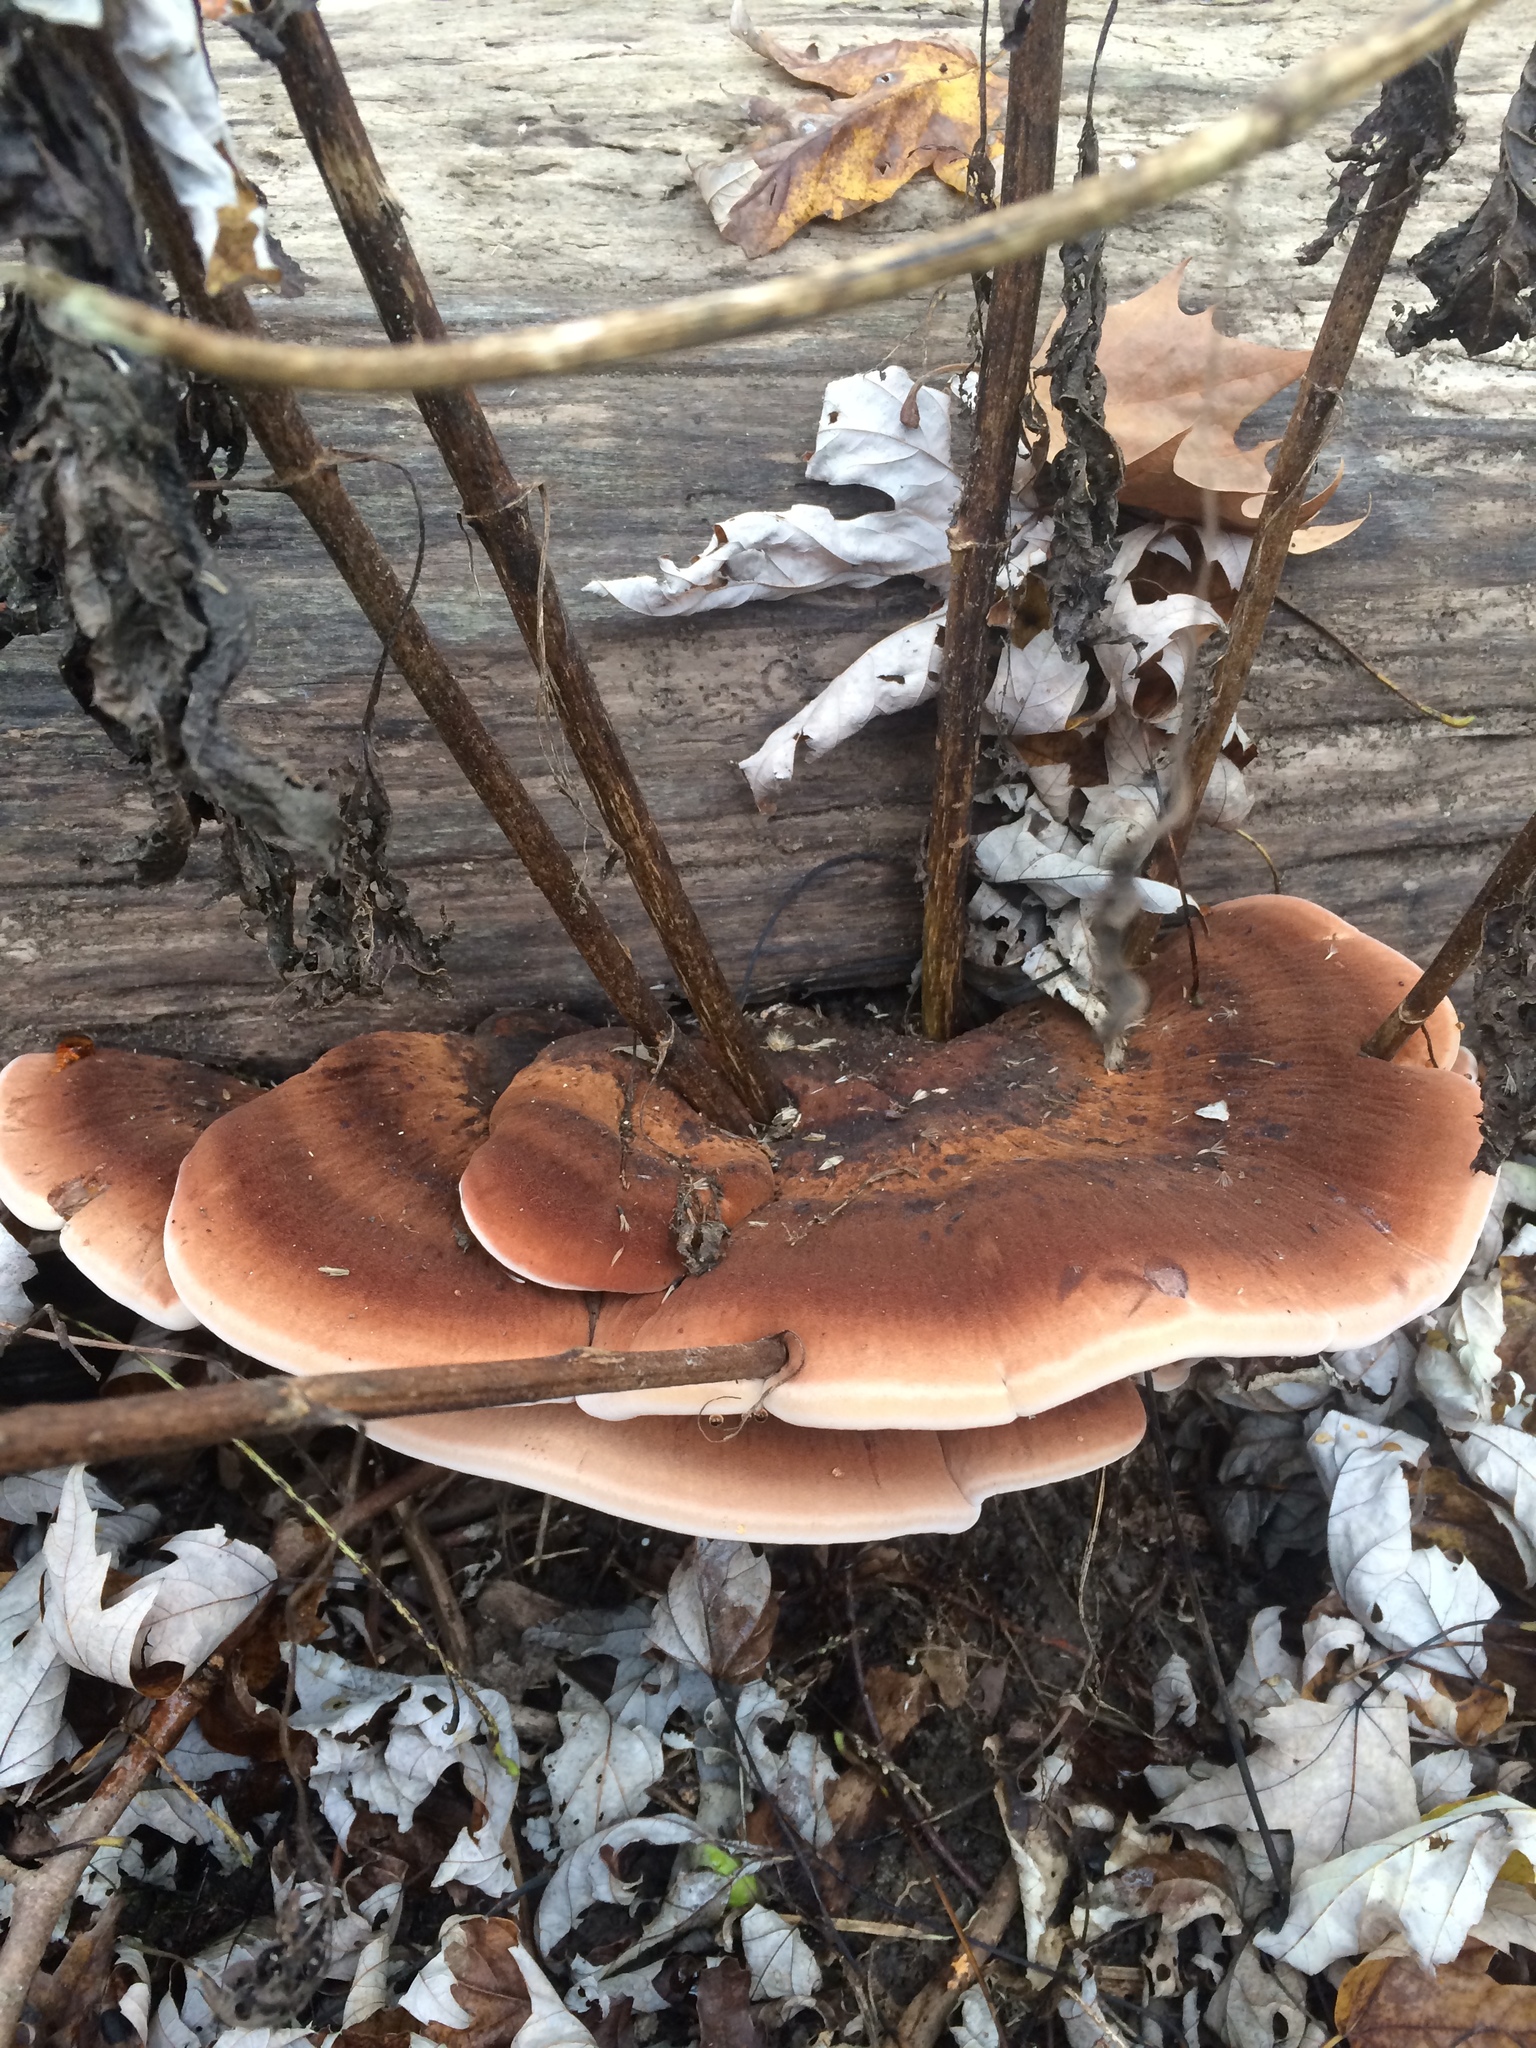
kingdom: Fungi
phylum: Basidiomycota
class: Agaricomycetes
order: Polyporales
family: Ischnodermataceae
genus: Ischnoderma
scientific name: Ischnoderma resinosum
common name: Resinous polypore
